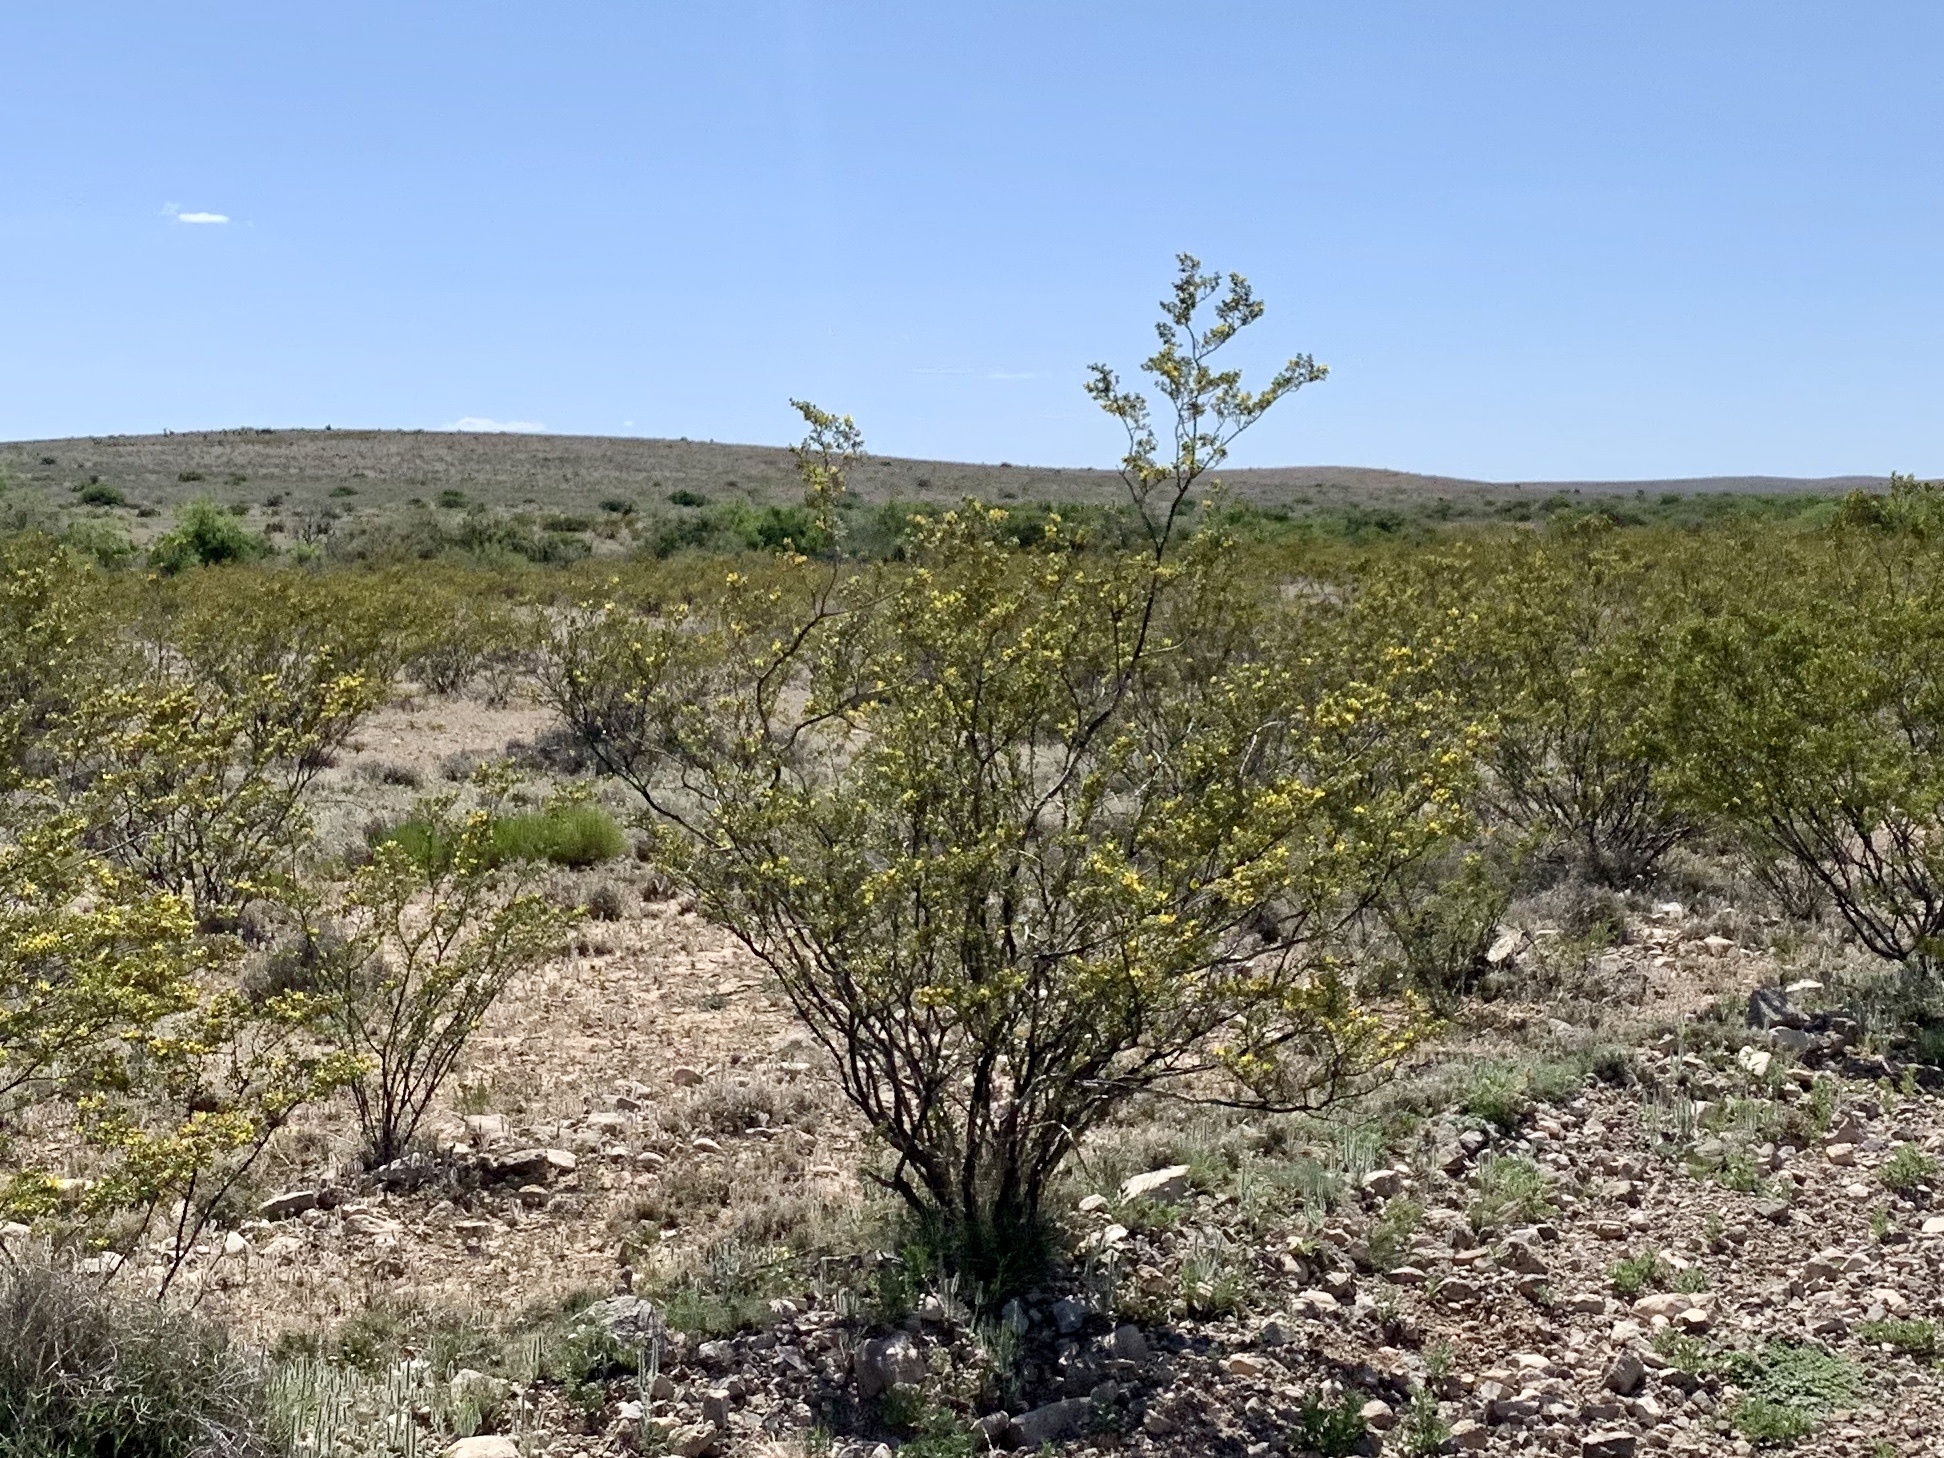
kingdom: Plantae
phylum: Tracheophyta
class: Magnoliopsida
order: Zygophyllales
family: Zygophyllaceae
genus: Larrea
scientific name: Larrea tridentata
